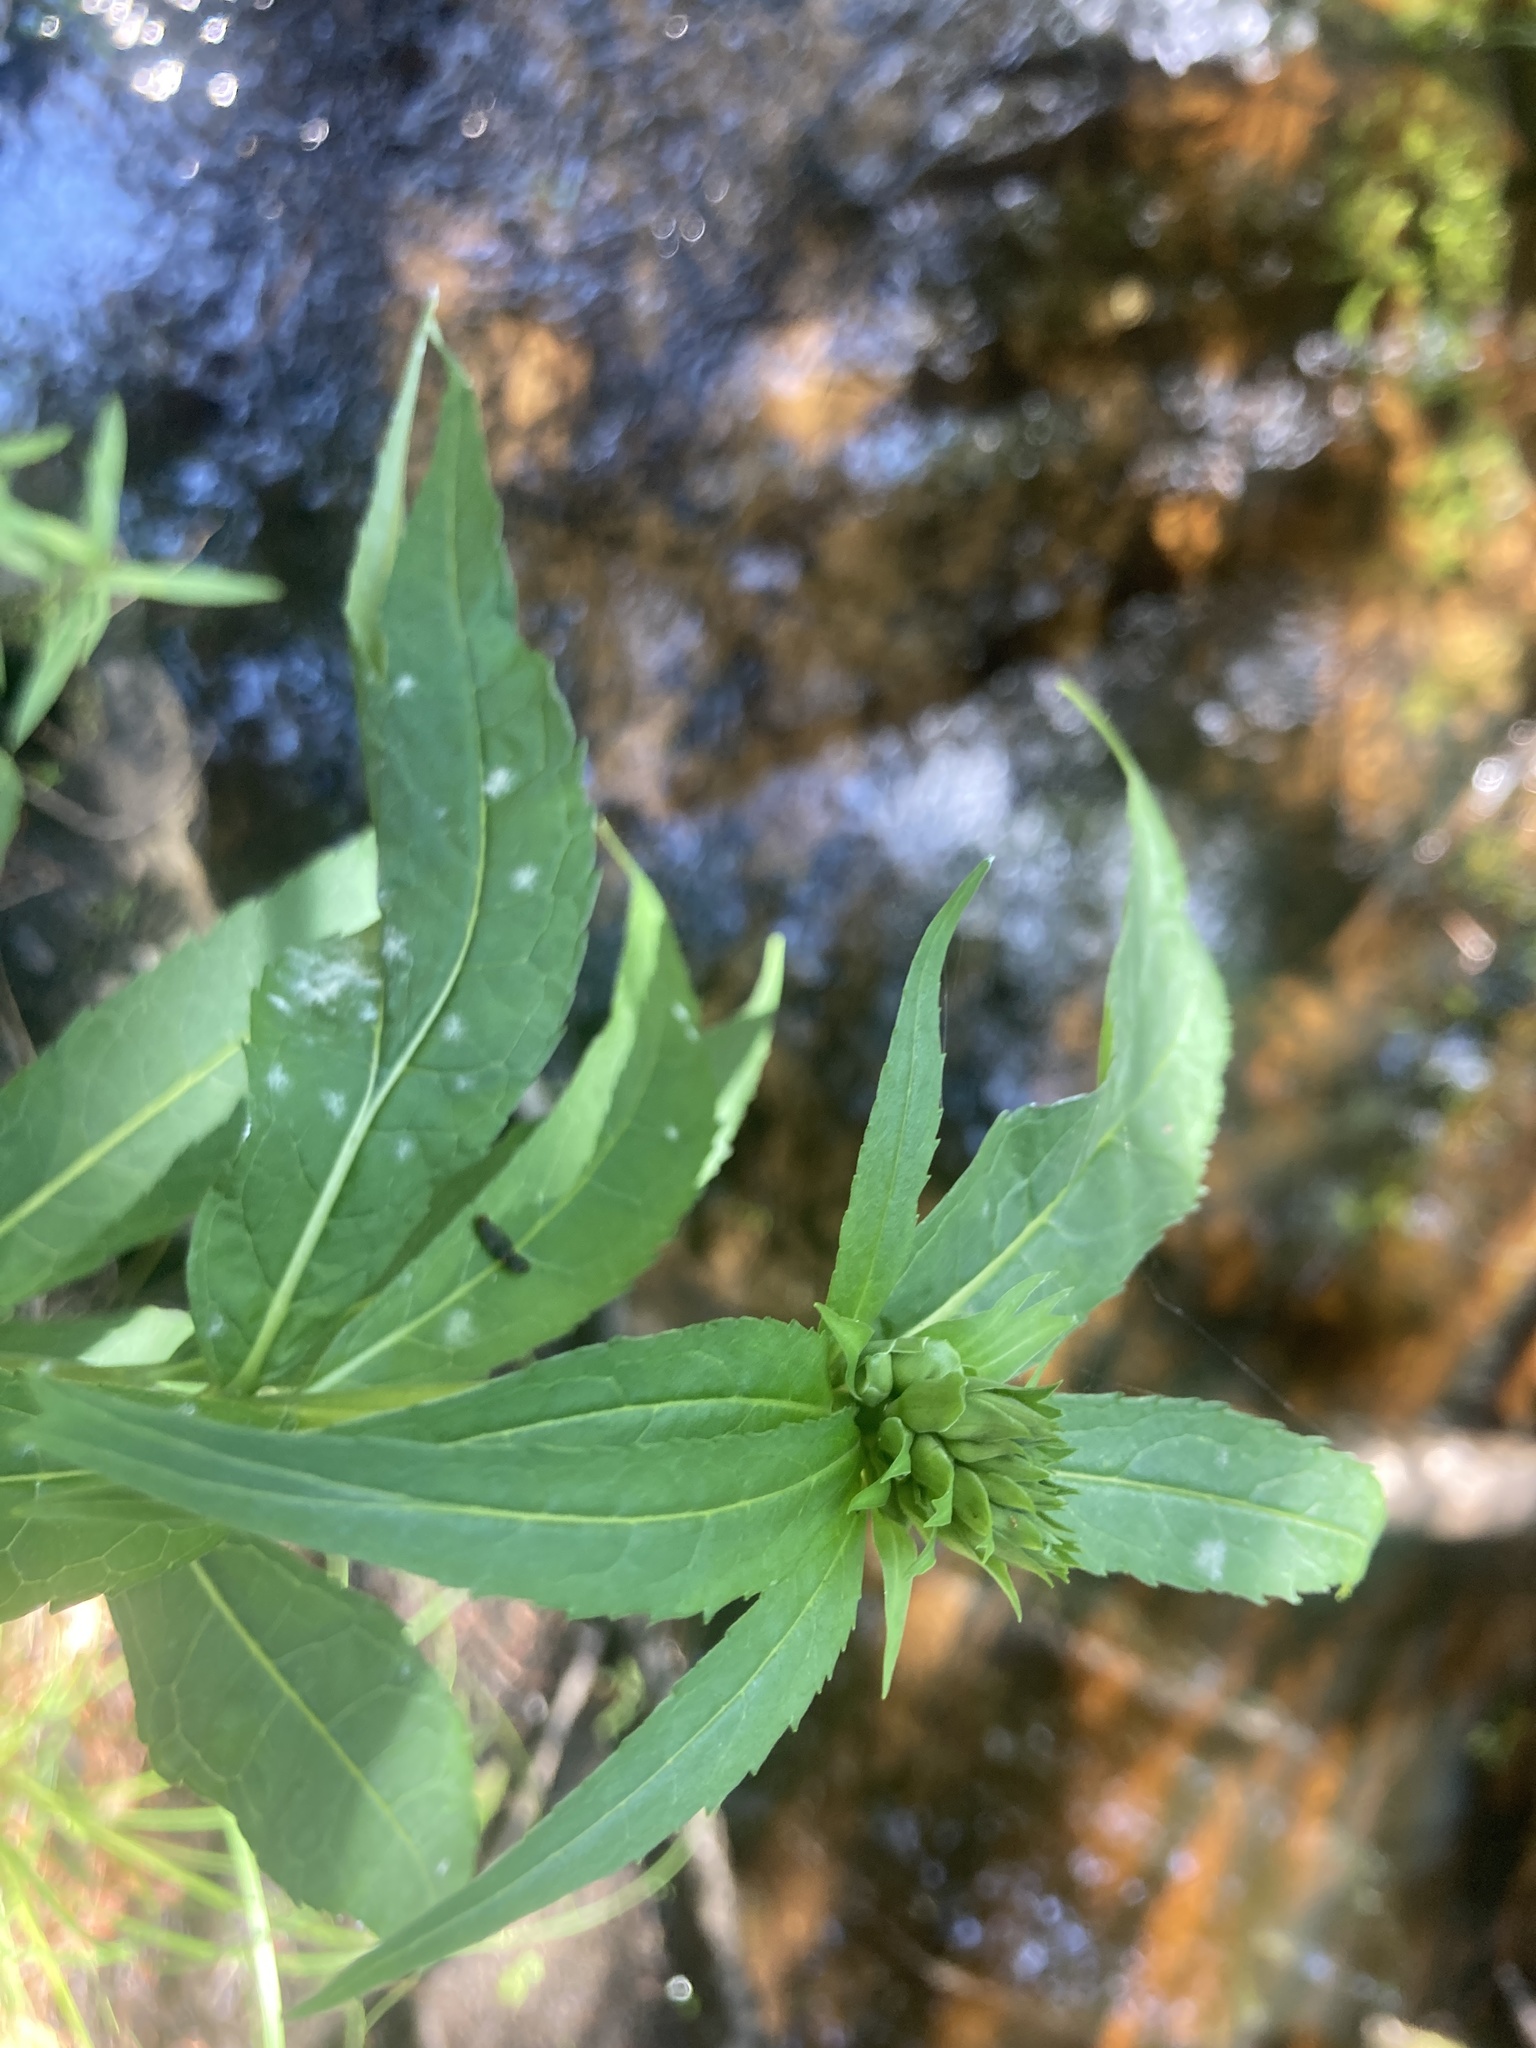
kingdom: Plantae
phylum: Tracheophyta
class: Magnoliopsida
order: Lamiales
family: Plantaginaceae
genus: Chelone
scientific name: Chelone glabra
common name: Snakehead
